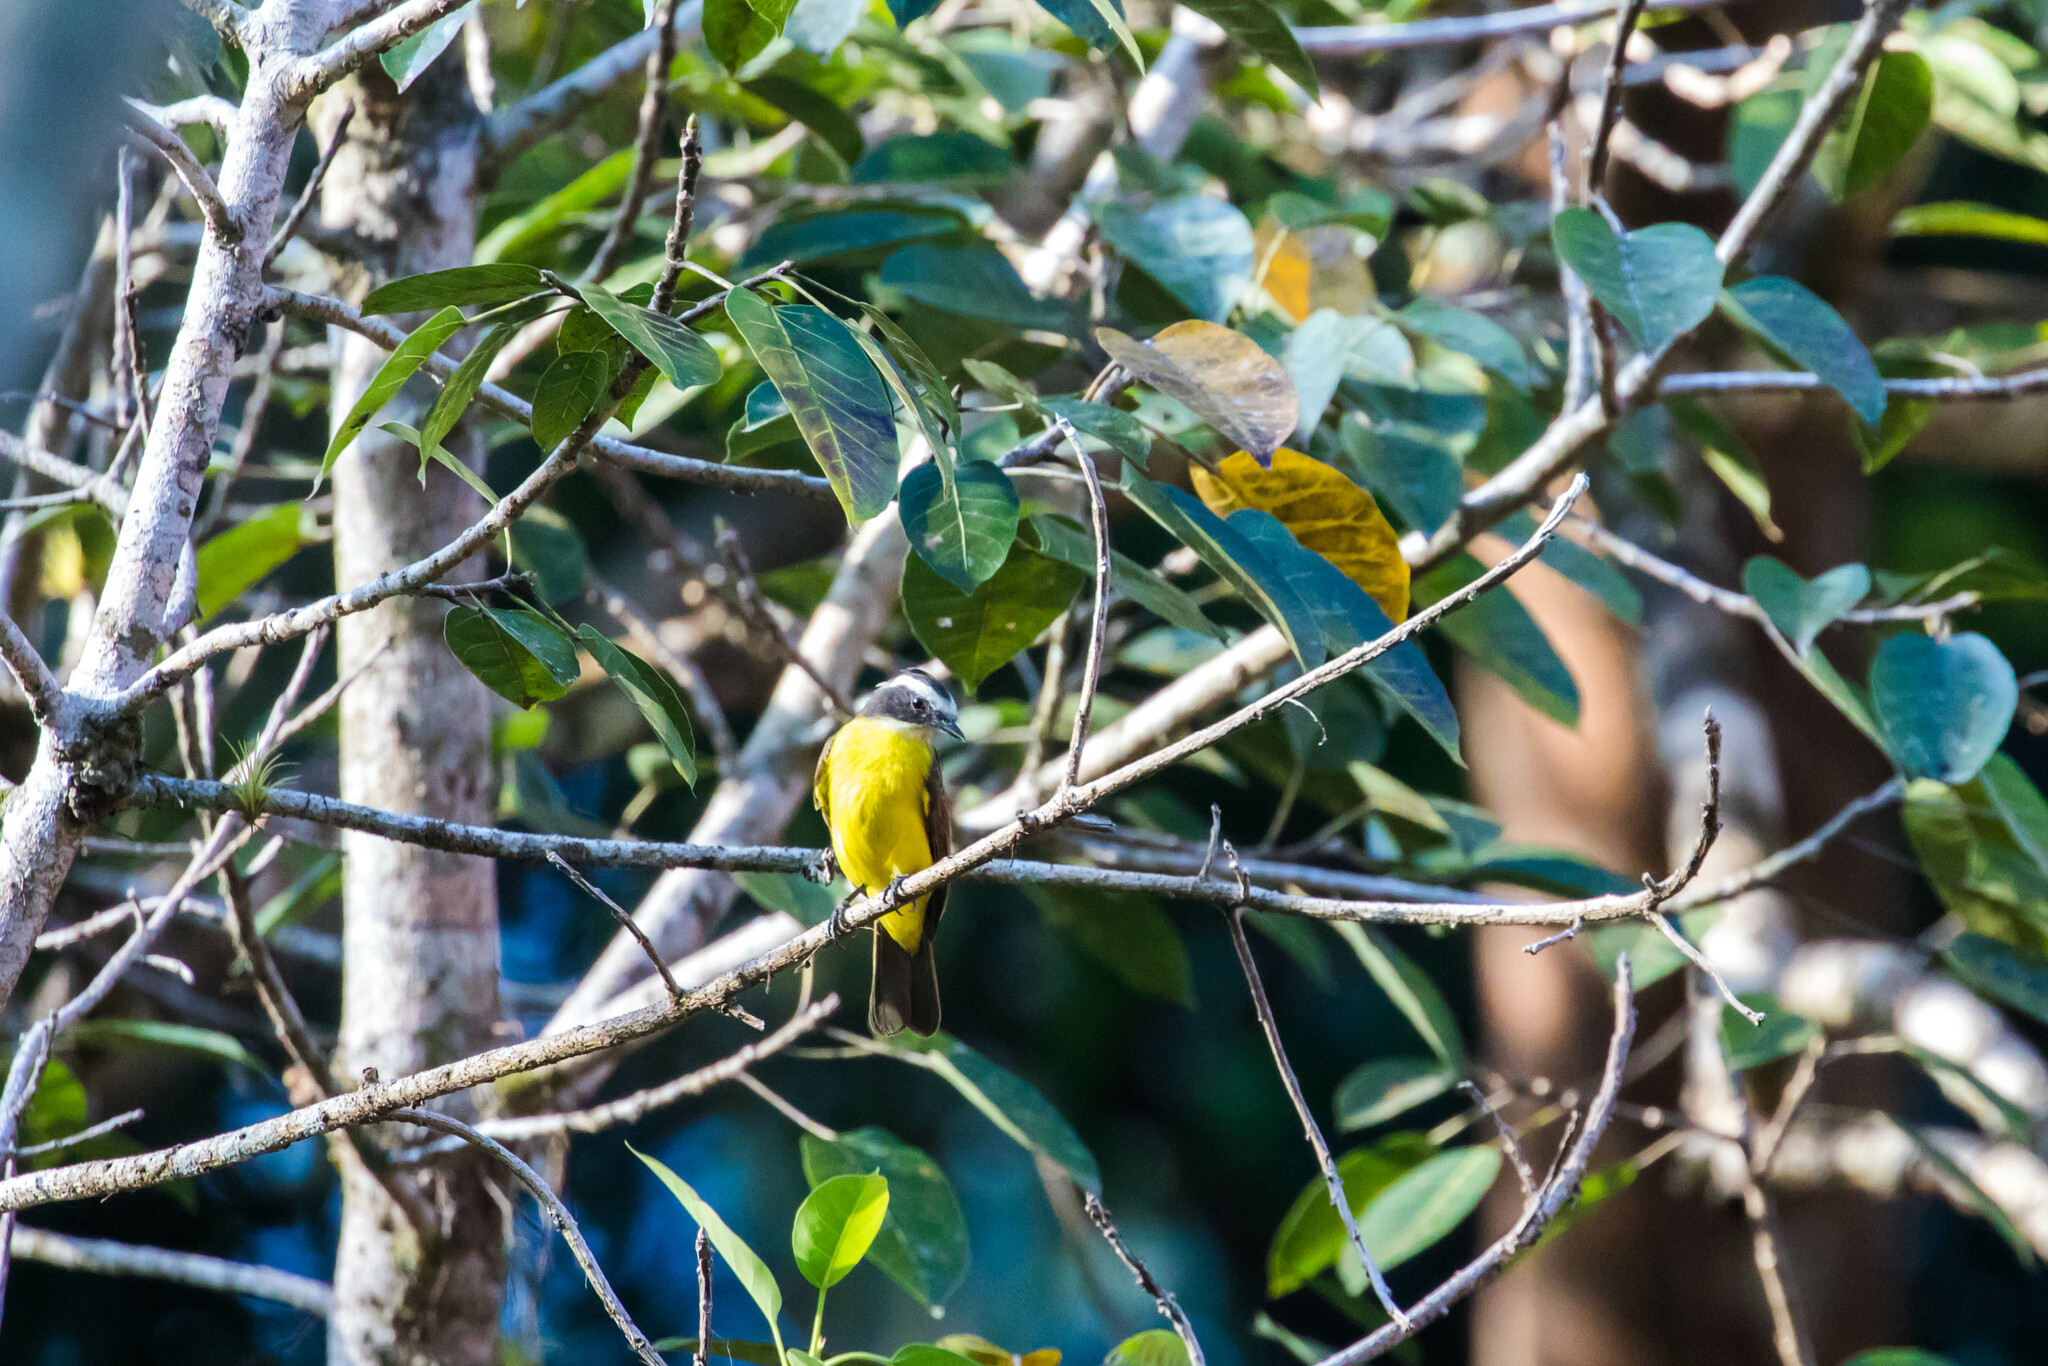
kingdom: Animalia
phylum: Chordata
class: Aves
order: Passeriformes
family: Tyrannidae
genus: Myiozetetes
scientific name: Myiozetetes similis
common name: Social flycatcher
